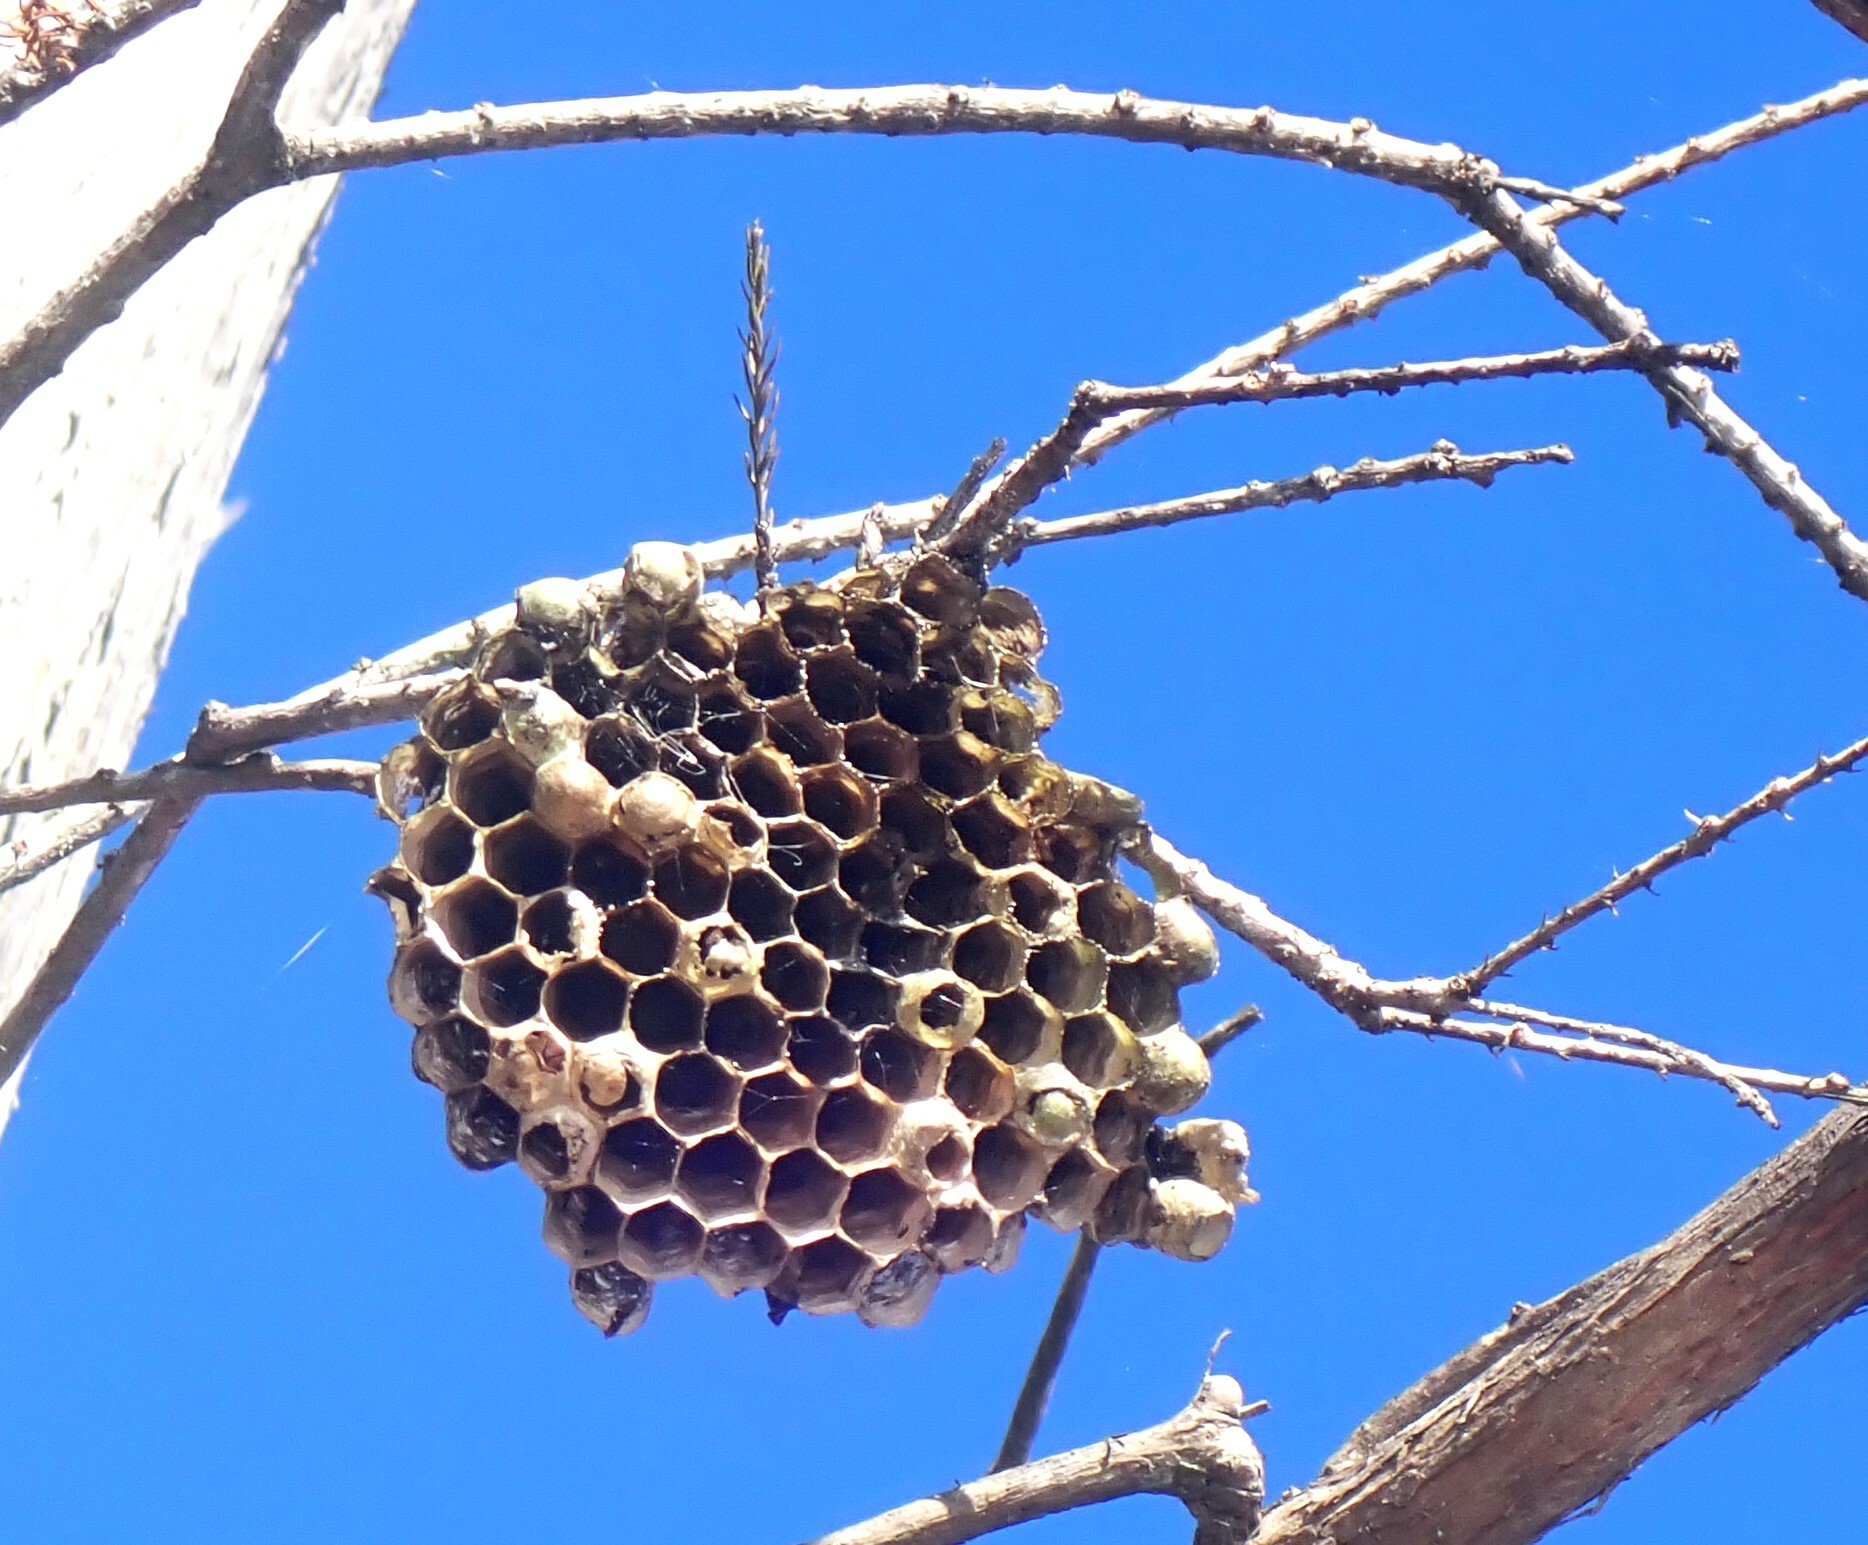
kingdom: Animalia
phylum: Arthropoda
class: Insecta
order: Hymenoptera
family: Vespidae
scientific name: Vespidae
